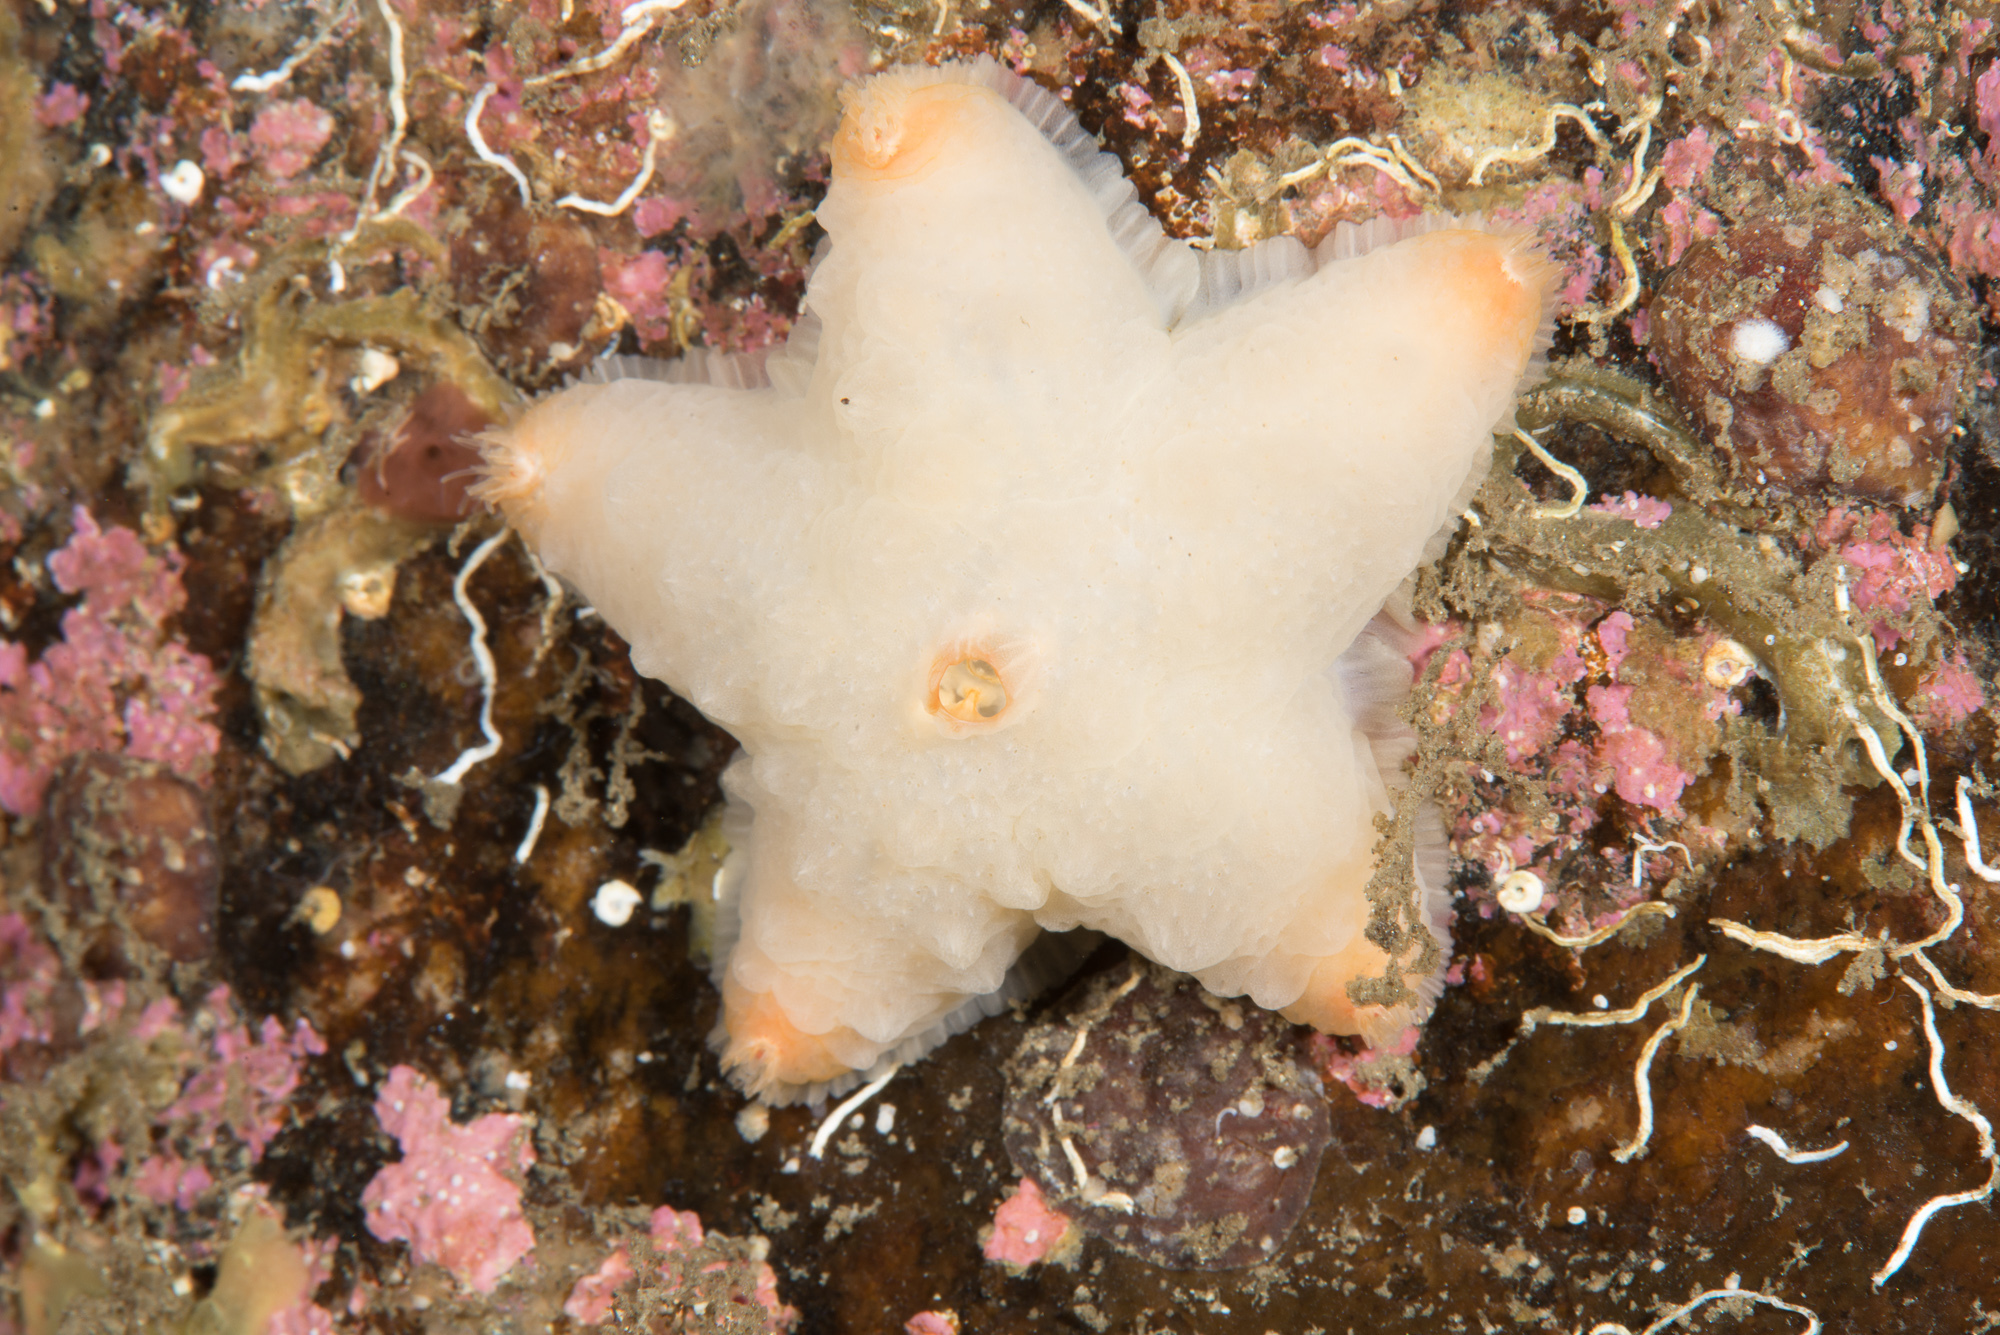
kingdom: Animalia
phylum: Echinodermata
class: Asteroidea
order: Velatida
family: Pterasteridae
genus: Pteraster
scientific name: Pteraster militaris
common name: Wrinkled slime star
